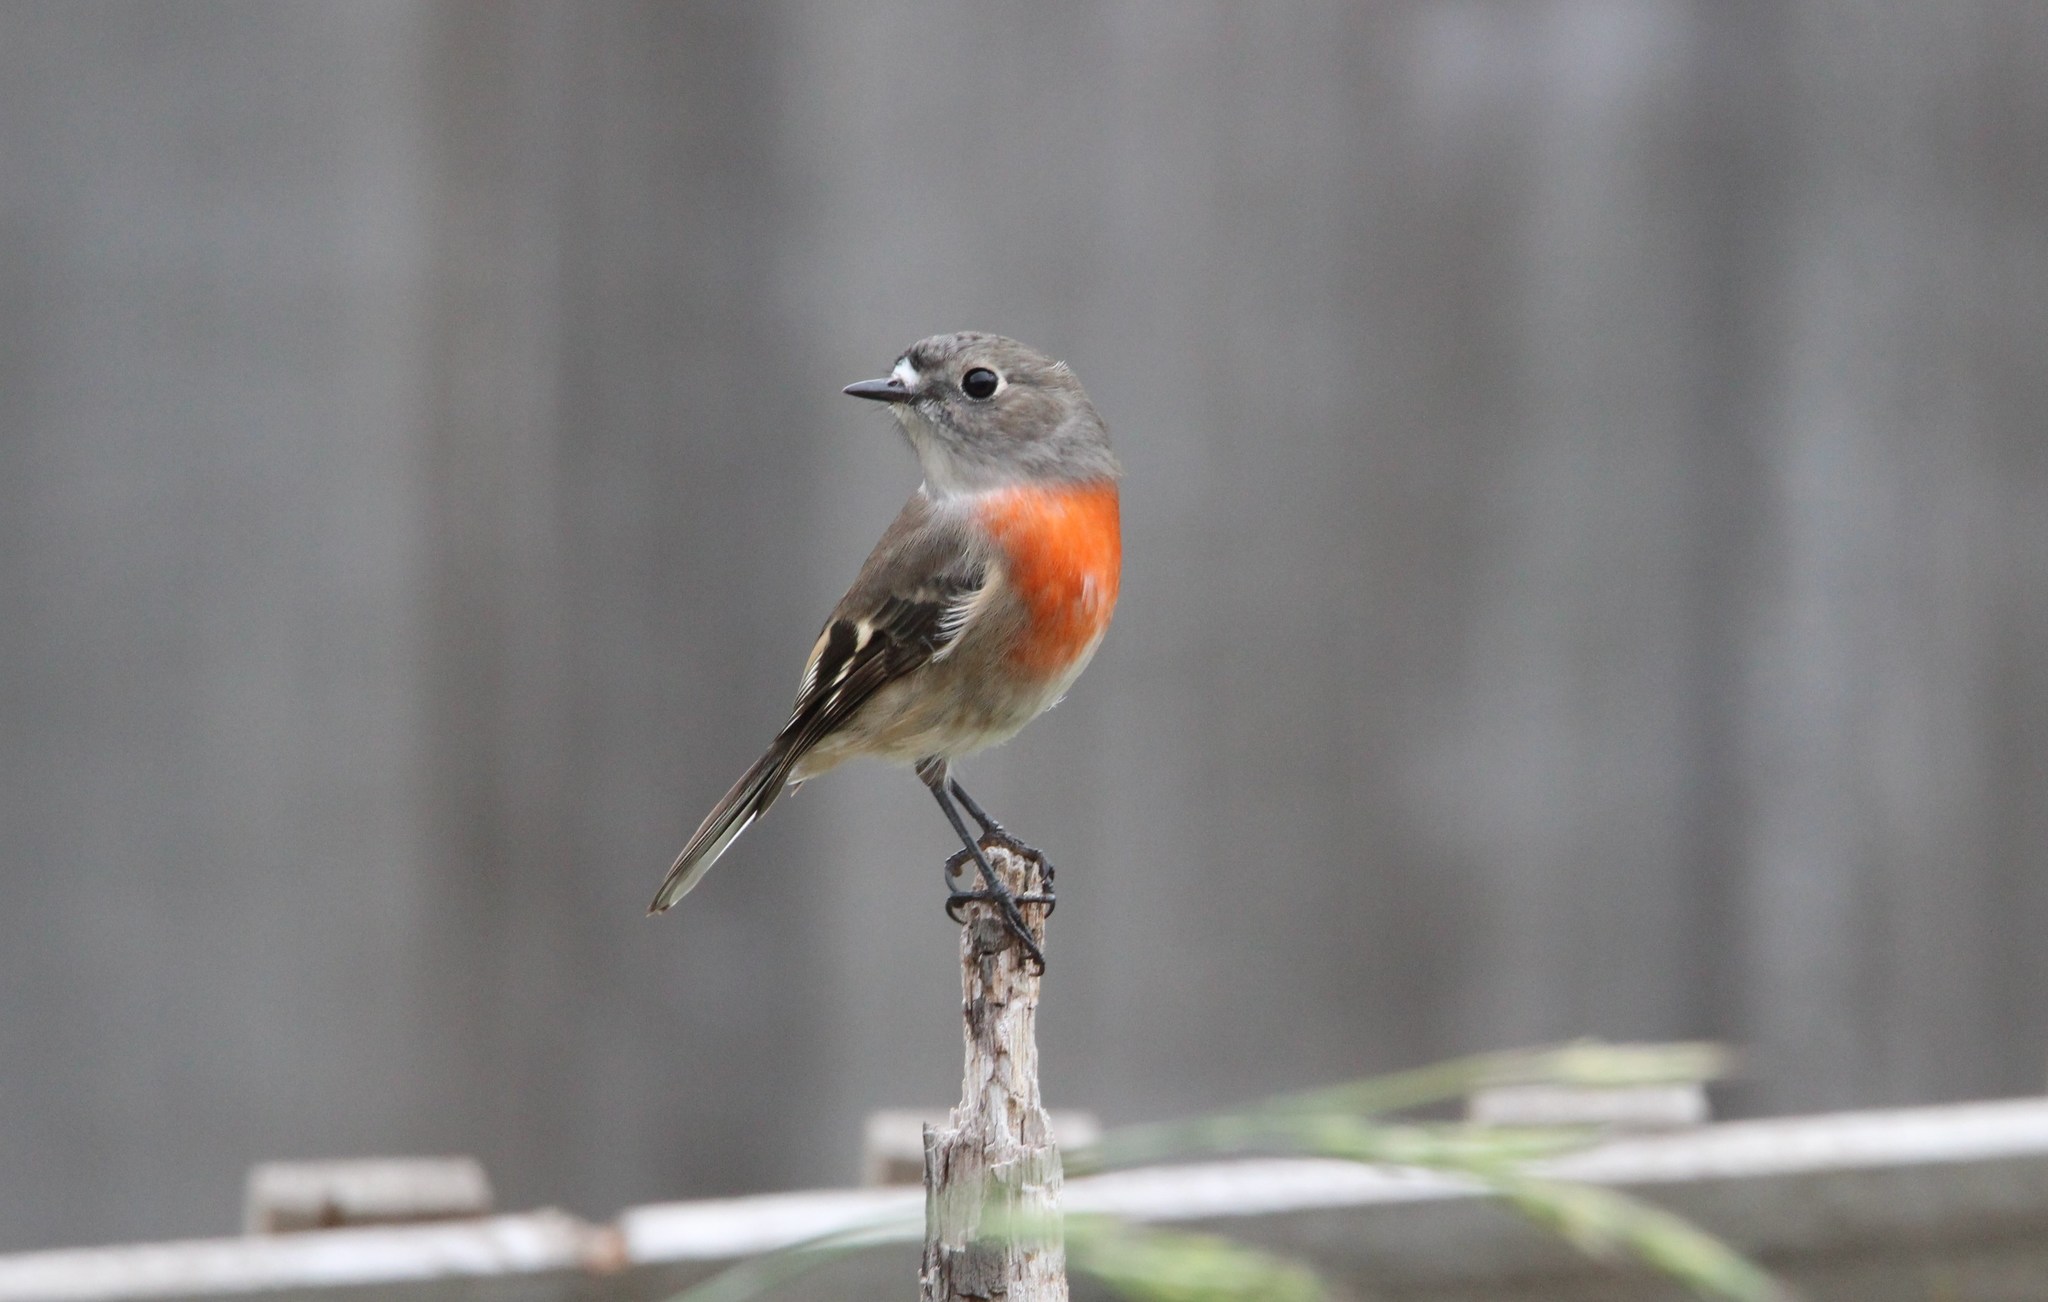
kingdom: Animalia
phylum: Chordata
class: Aves
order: Passeriformes
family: Petroicidae
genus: Petroica
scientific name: Petroica boodang
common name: Scarlet robin
